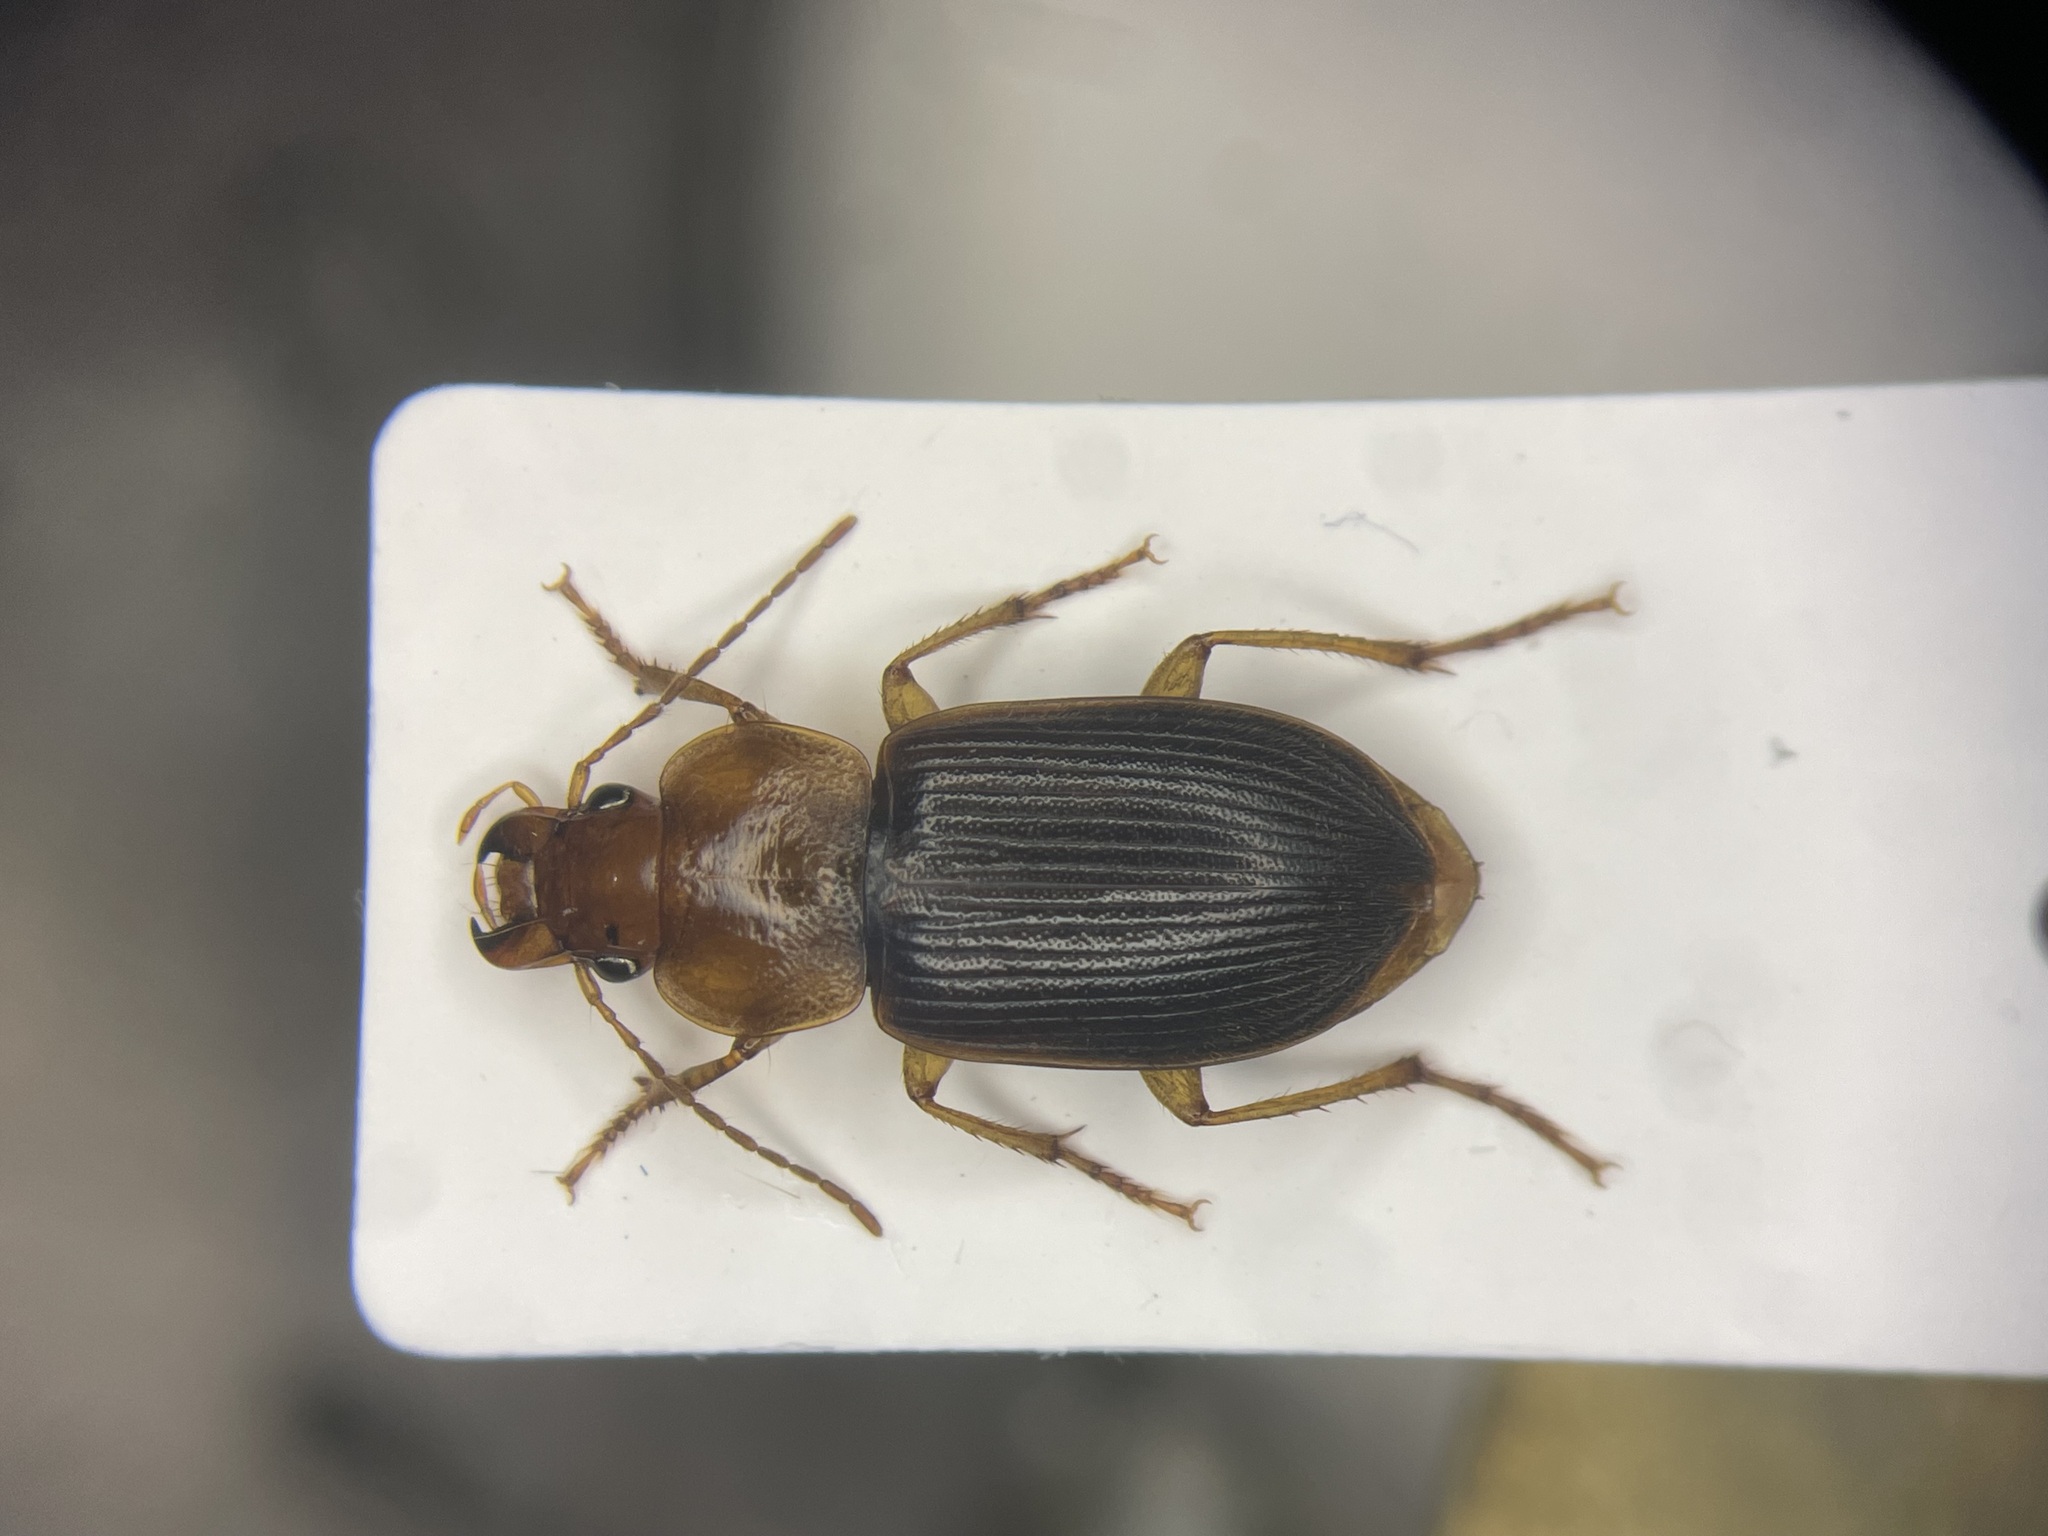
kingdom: Animalia
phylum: Arthropoda
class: Insecta
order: Coleoptera
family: Carabidae
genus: Amphasia
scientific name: Amphasia interstitialis
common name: Red-headed ground beetle
